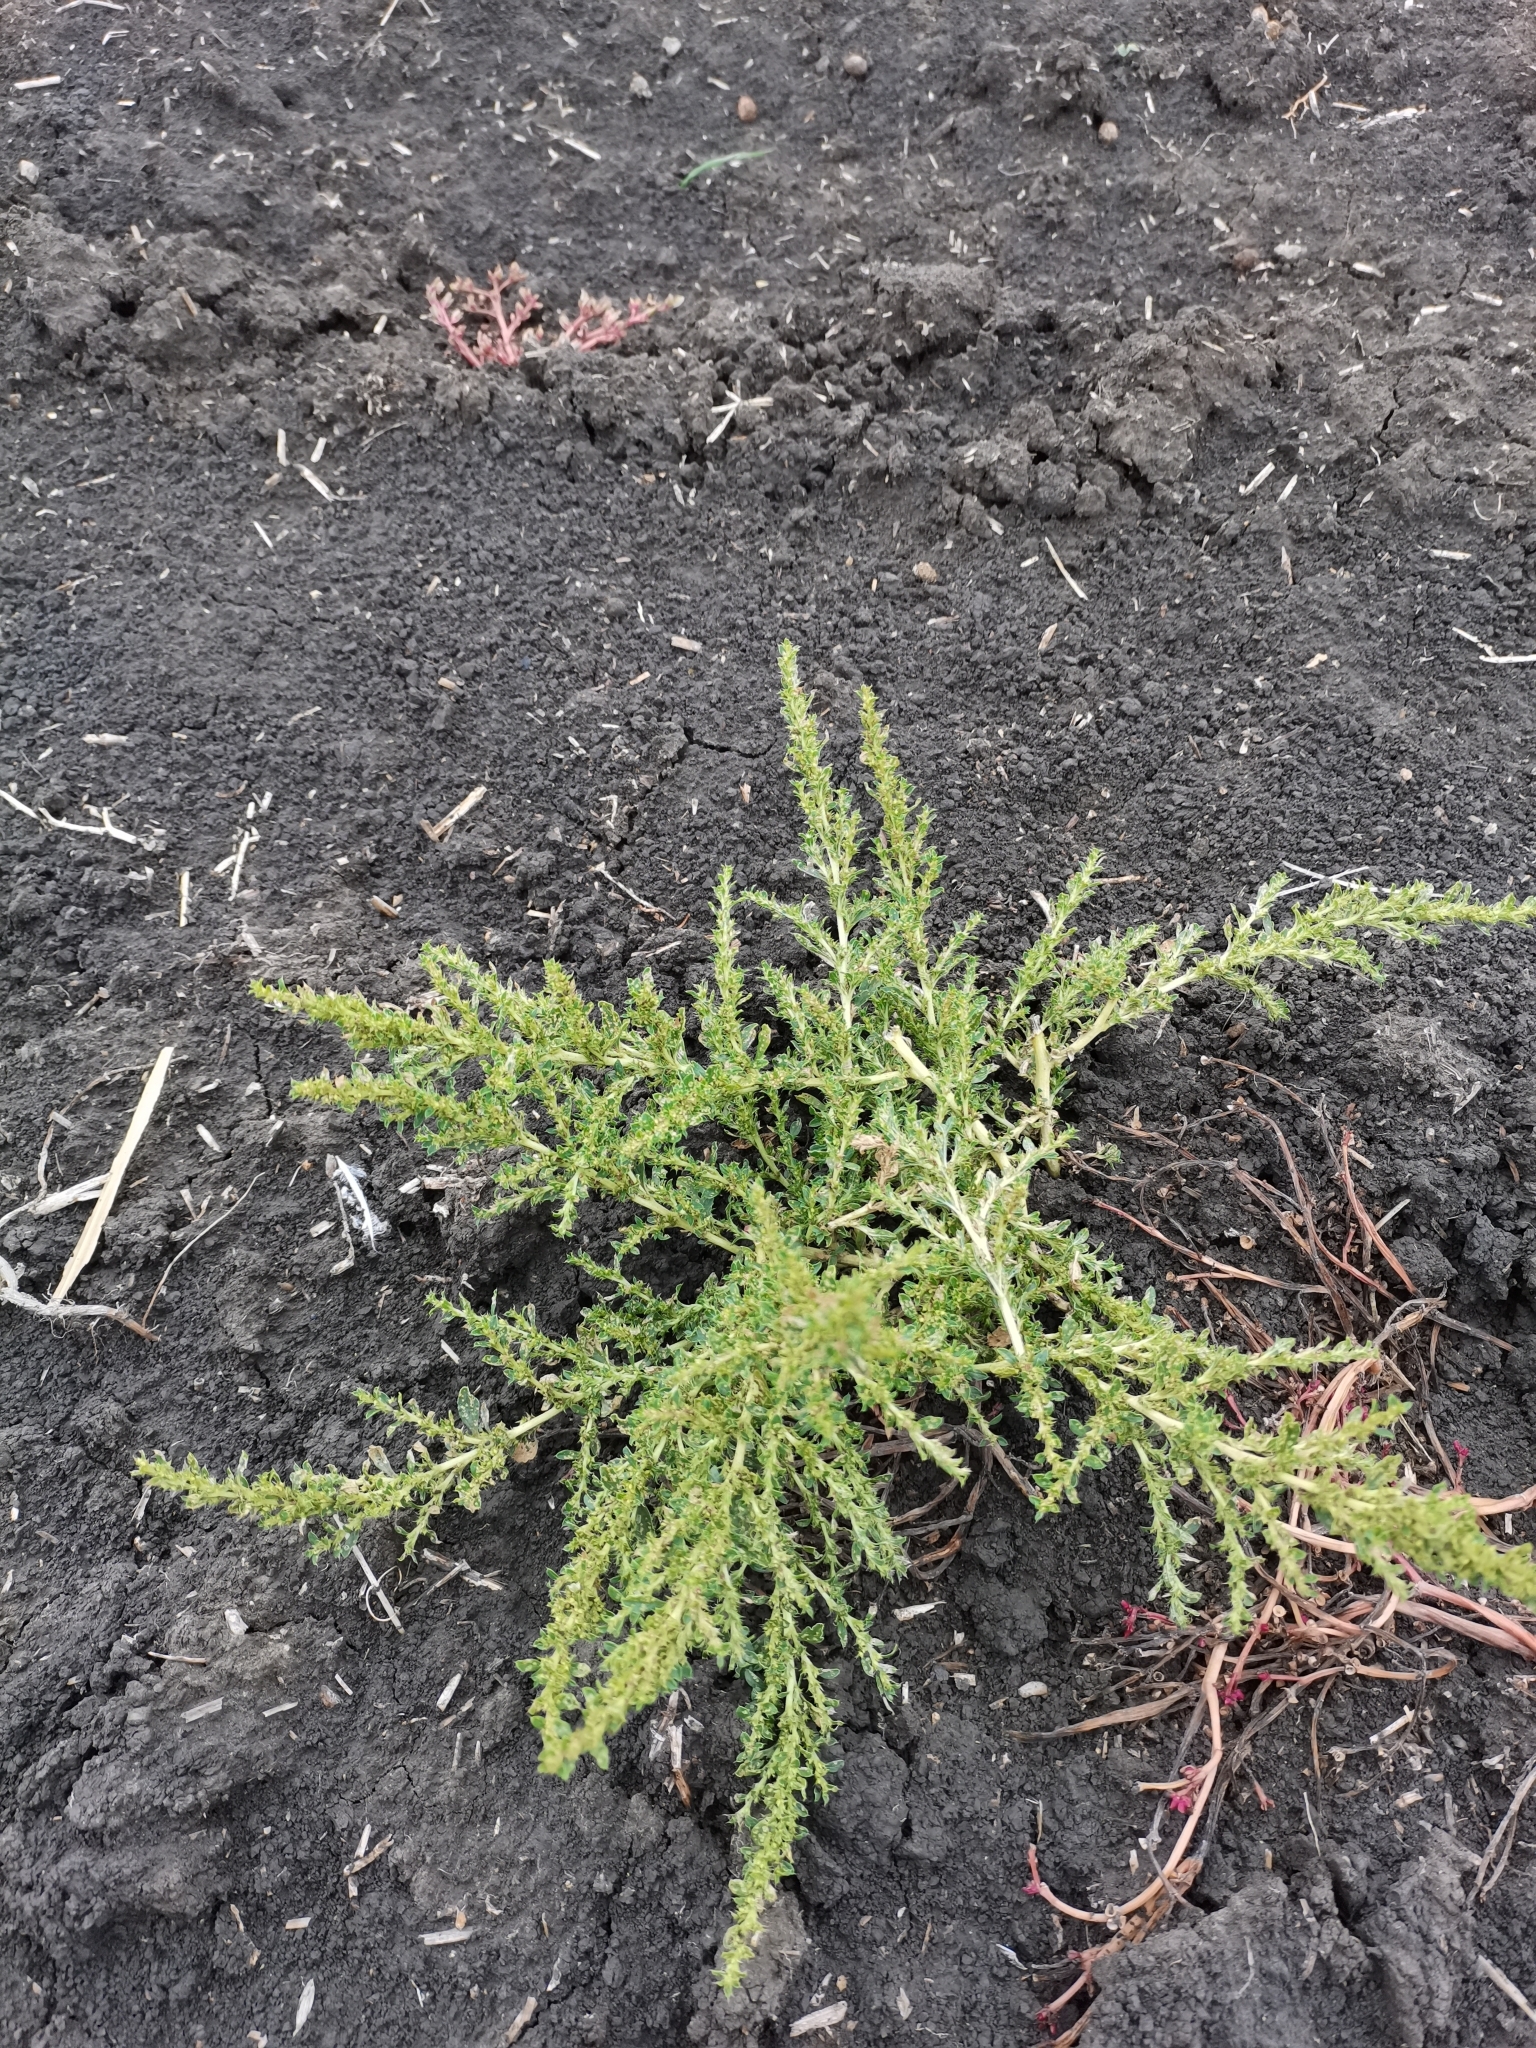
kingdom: Plantae
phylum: Tracheophyta
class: Magnoliopsida
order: Caryophyllales
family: Amaranthaceae
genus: Amaranthus
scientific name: Amaranthus albus
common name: White pigweed
